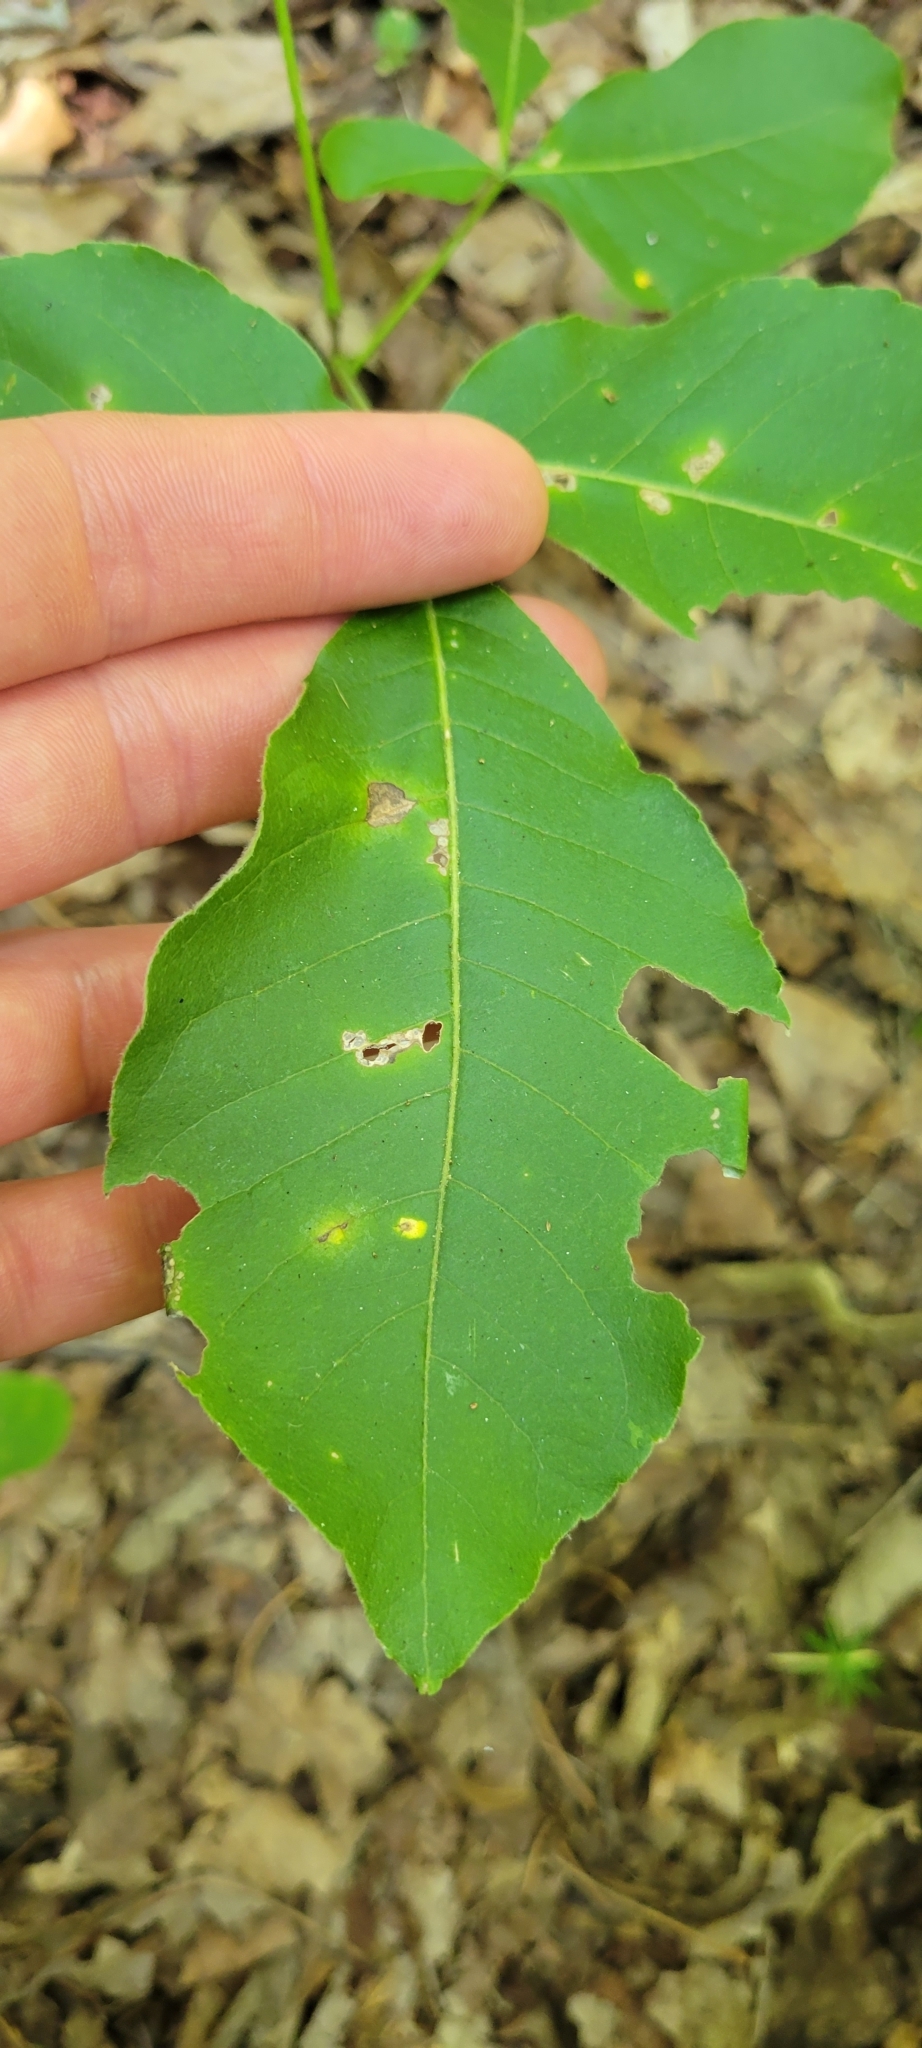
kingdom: Plantae
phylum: Tracheophyta
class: Magnoliopsida
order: Sapindales
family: Rutaceae
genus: Ptelea
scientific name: Ptelea trifoliata
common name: Common hop-tree
